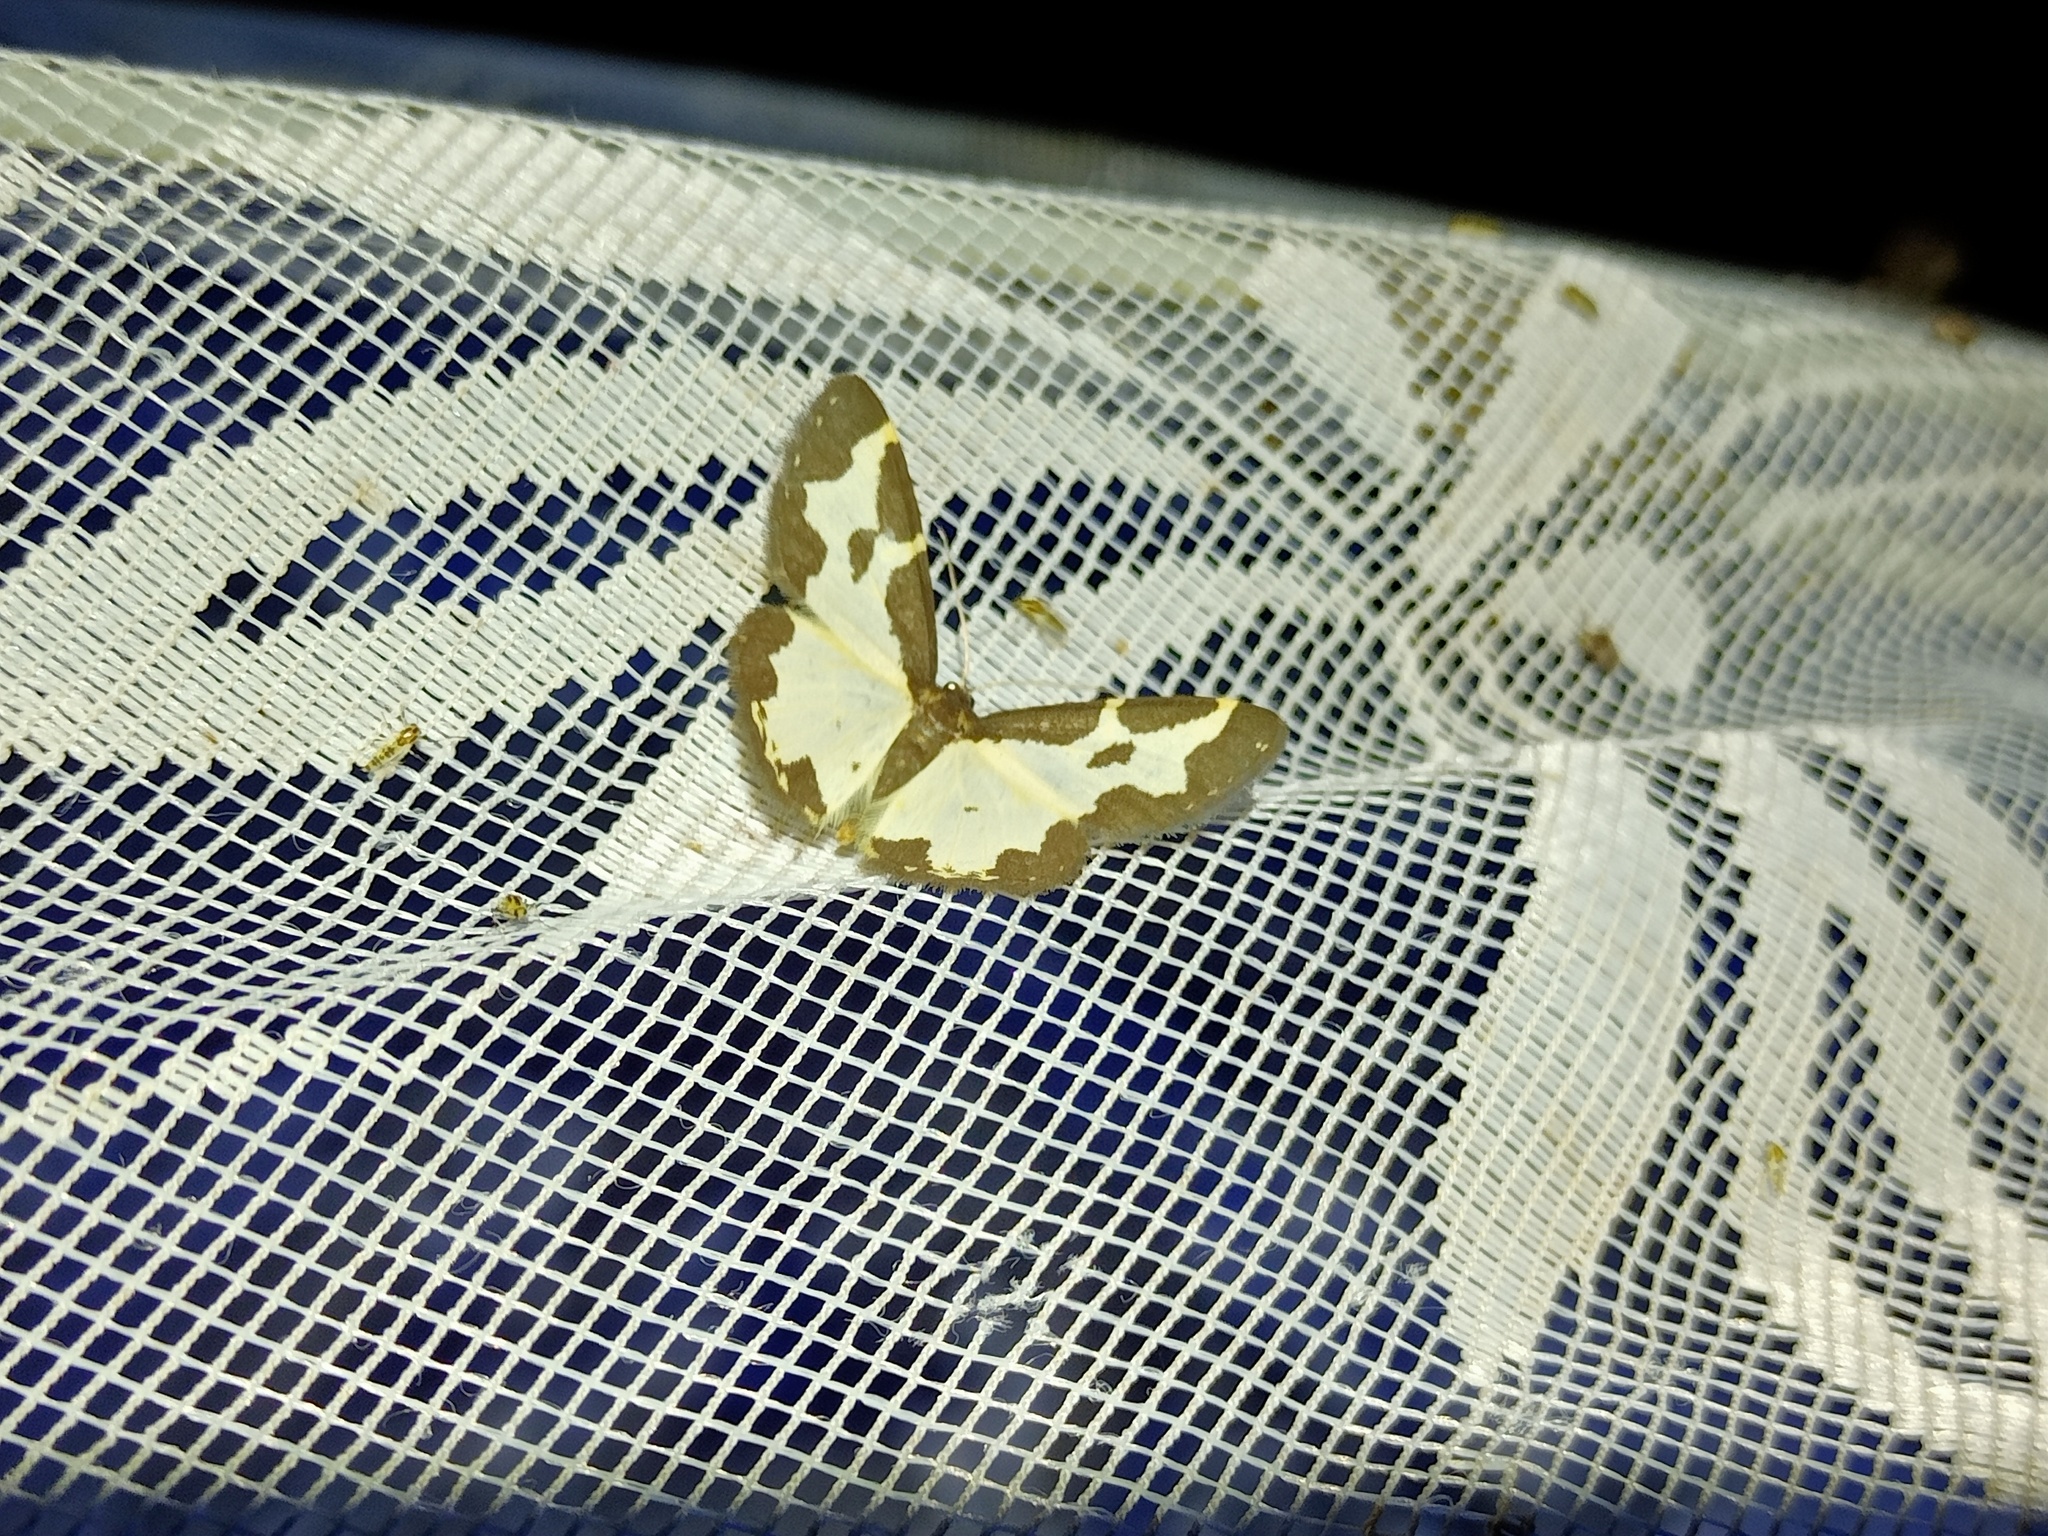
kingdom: Animalia
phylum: Arthropoda
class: Insecta
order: Lepidoptera
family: Geometridae
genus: Lomaspilis
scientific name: Lomaspilis marginata
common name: Clouded border
